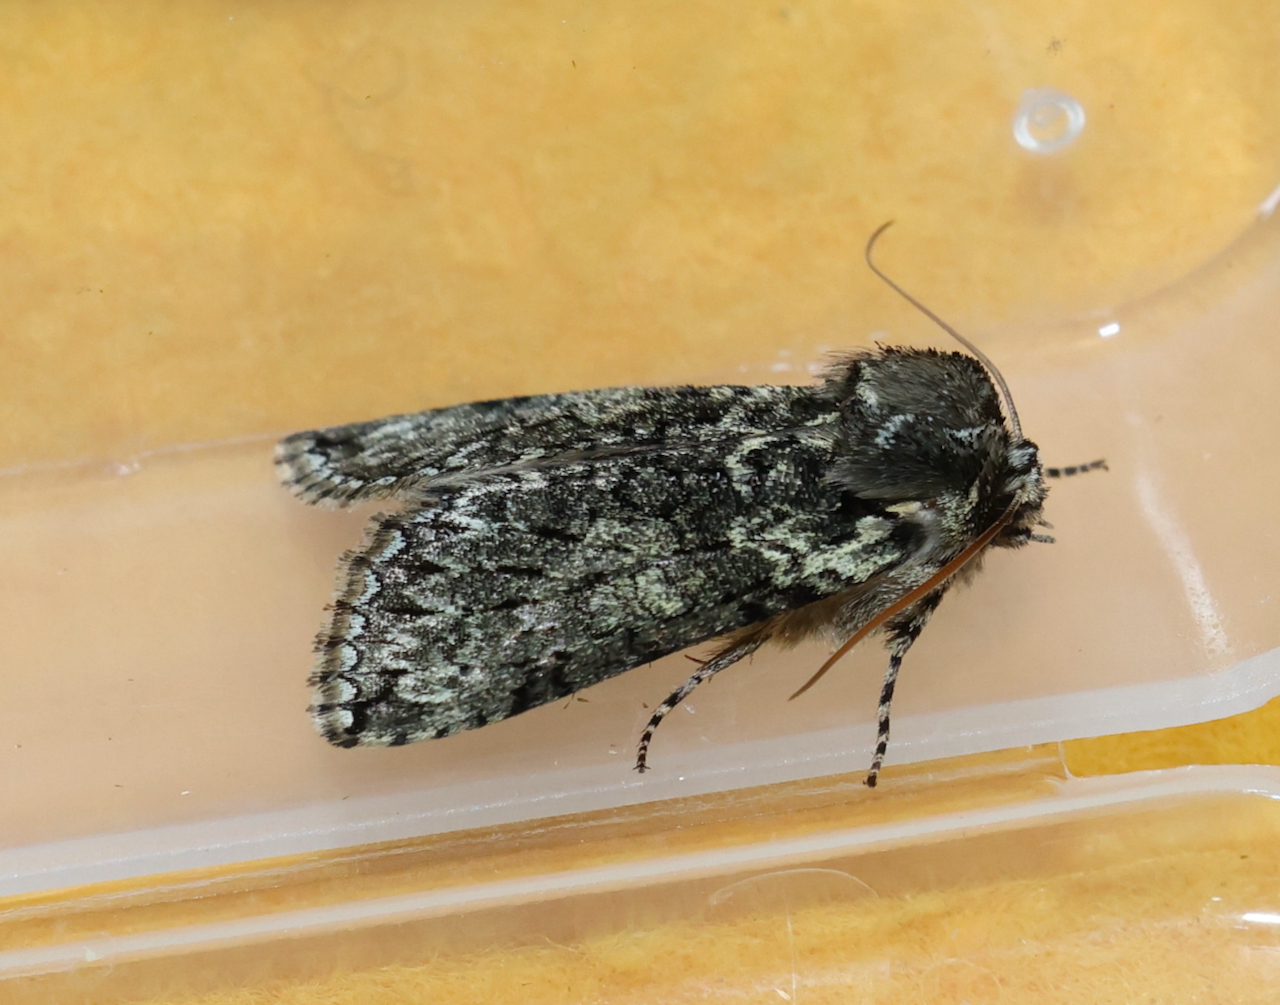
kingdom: Animalia
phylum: Arthropoda
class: Insecta
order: Lepidoptera
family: Drepanidae
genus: Polyploca
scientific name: Polyploca ridens
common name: Frosted green
